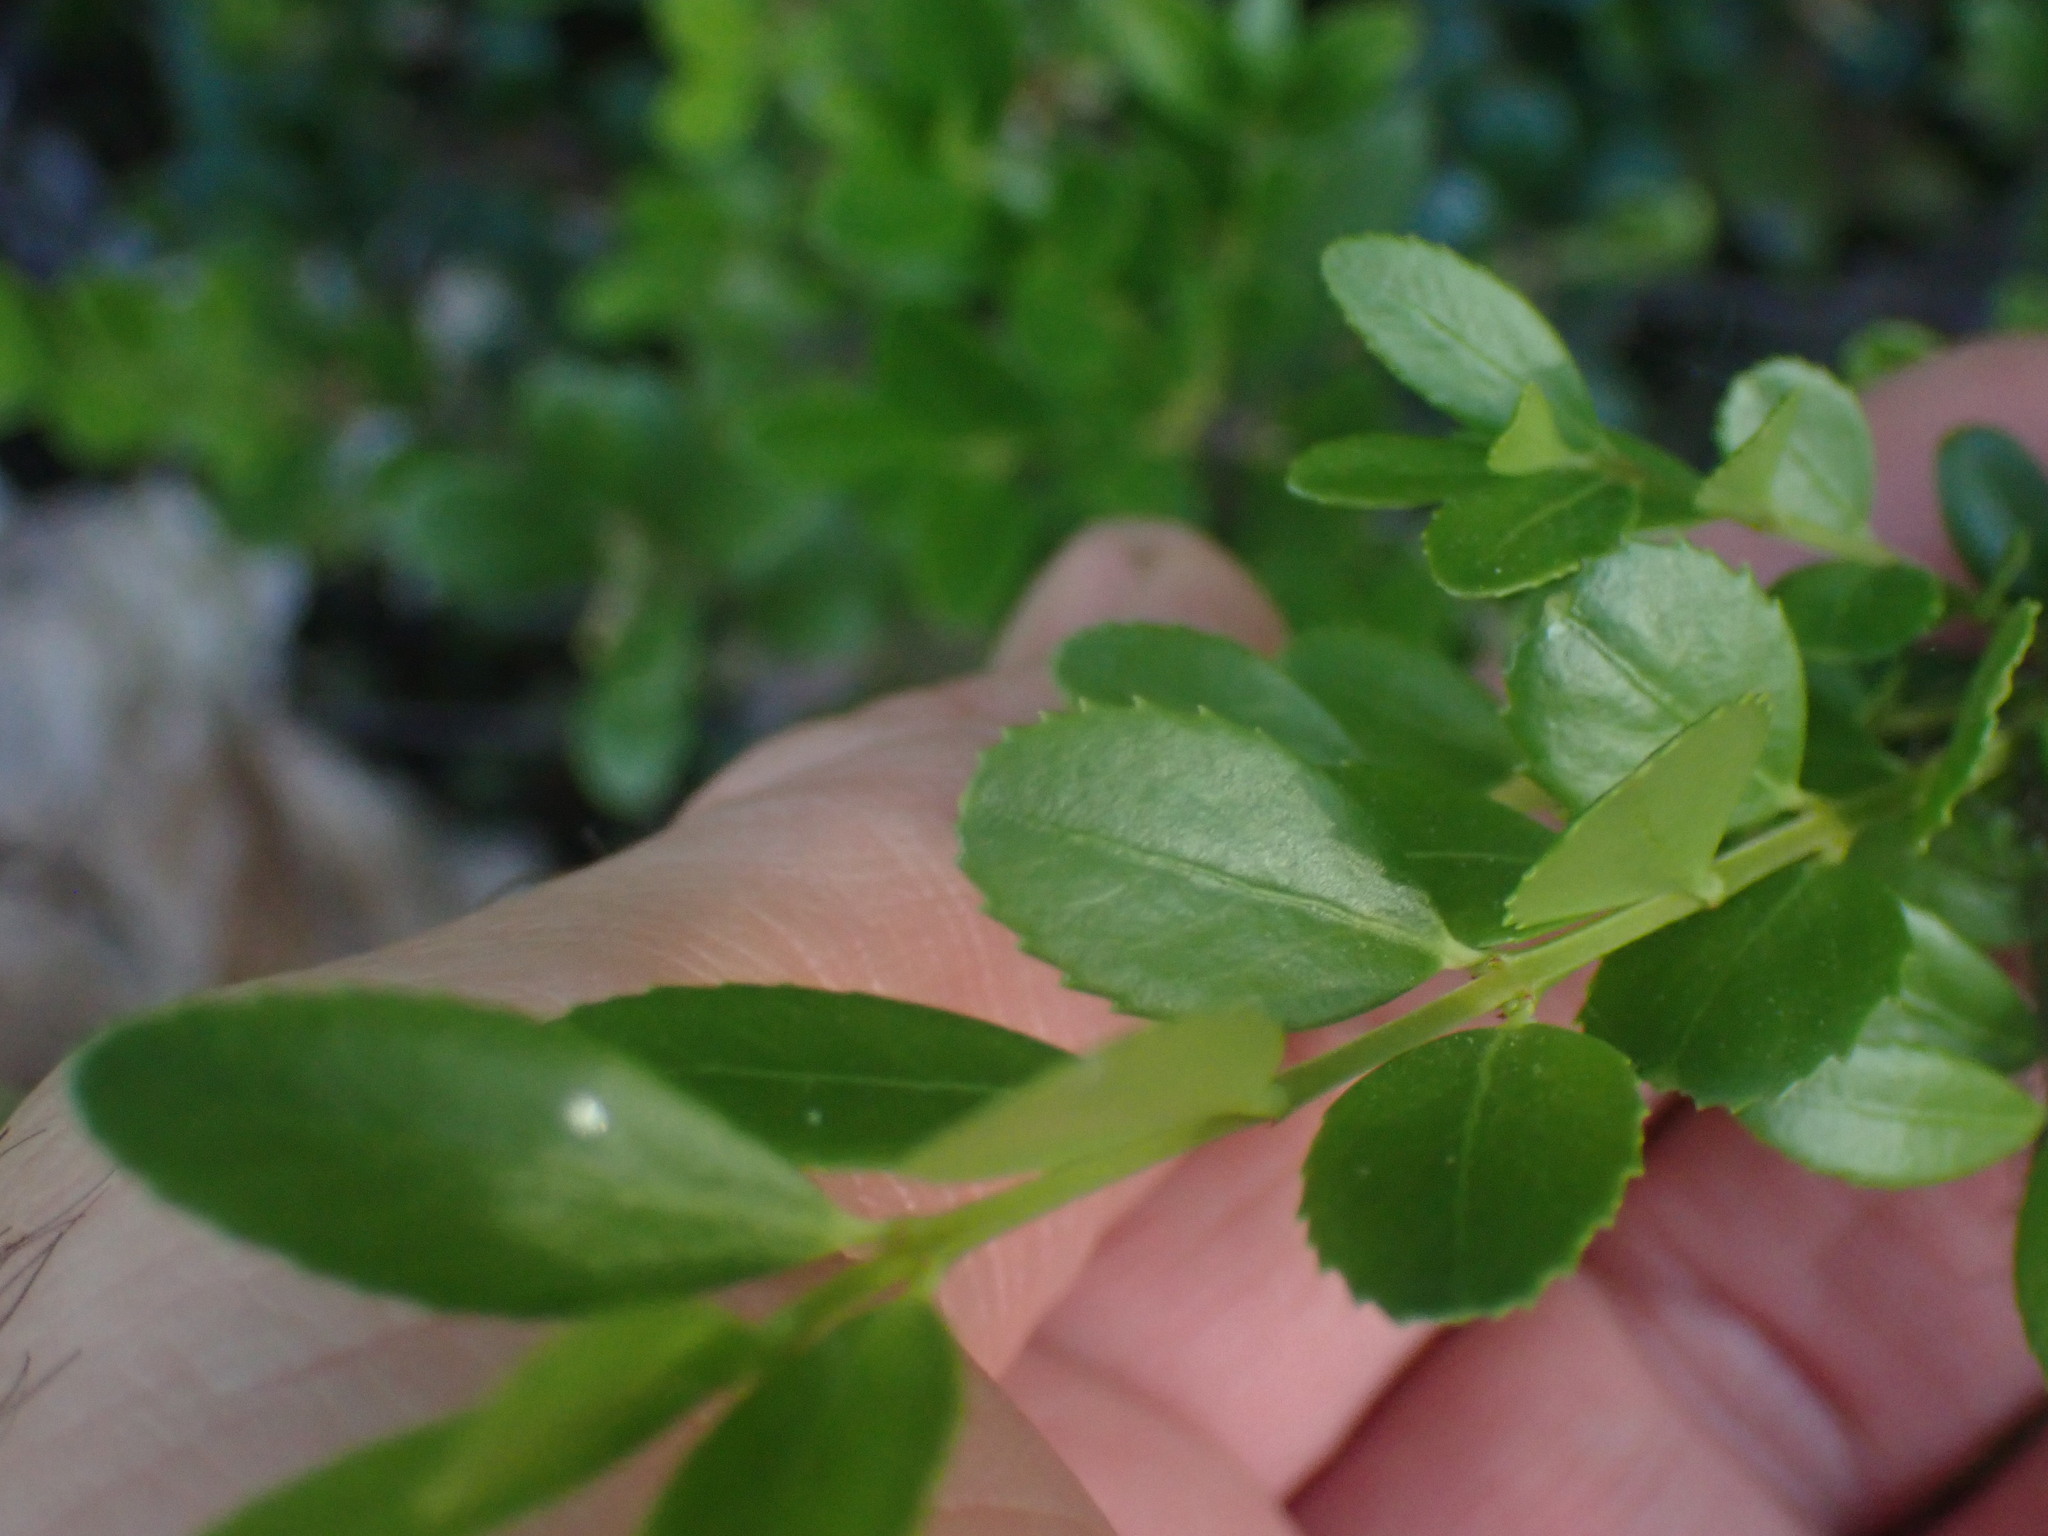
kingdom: Plantae
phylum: Tracheophyta
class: Magnoliopsida
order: Celastrales
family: Celastraceae
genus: Paxistima
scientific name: Paxistima myrsinites
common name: Mountain-lover
